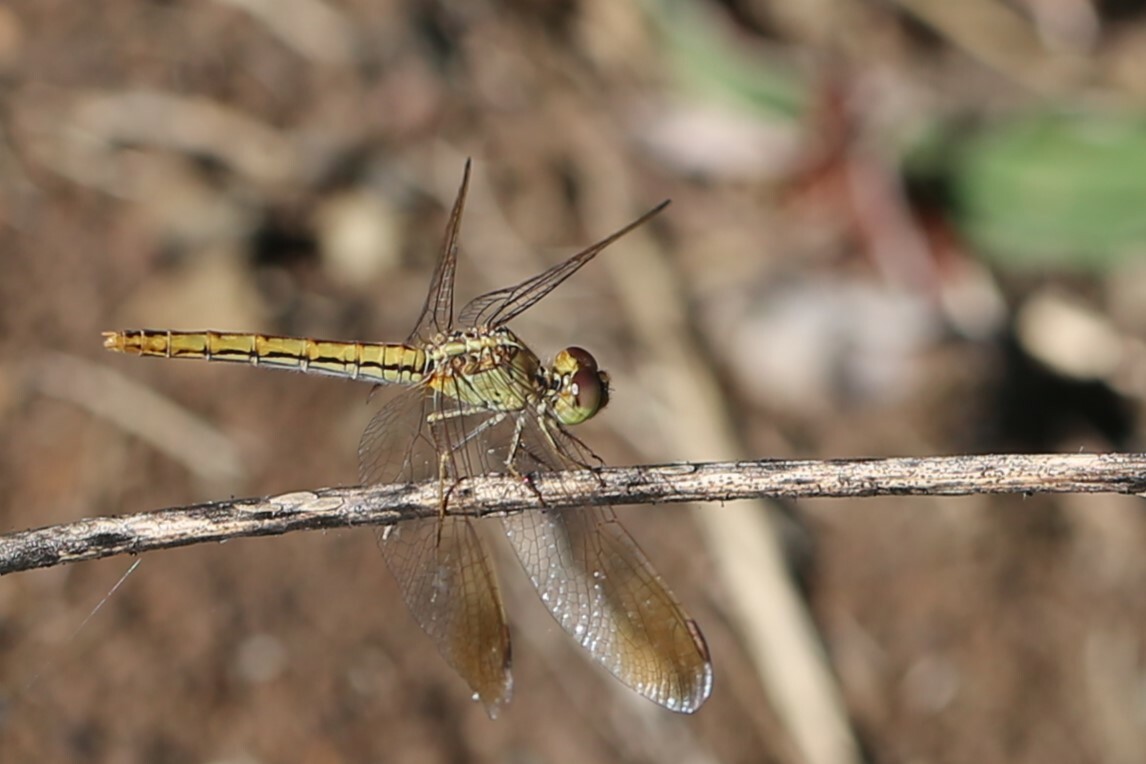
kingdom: Animalia
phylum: Arthropoda
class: Insecta
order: Odonata
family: Libellulidae
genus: Diplacodes
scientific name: Diplacodes haematodes
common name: Scarlet percher
